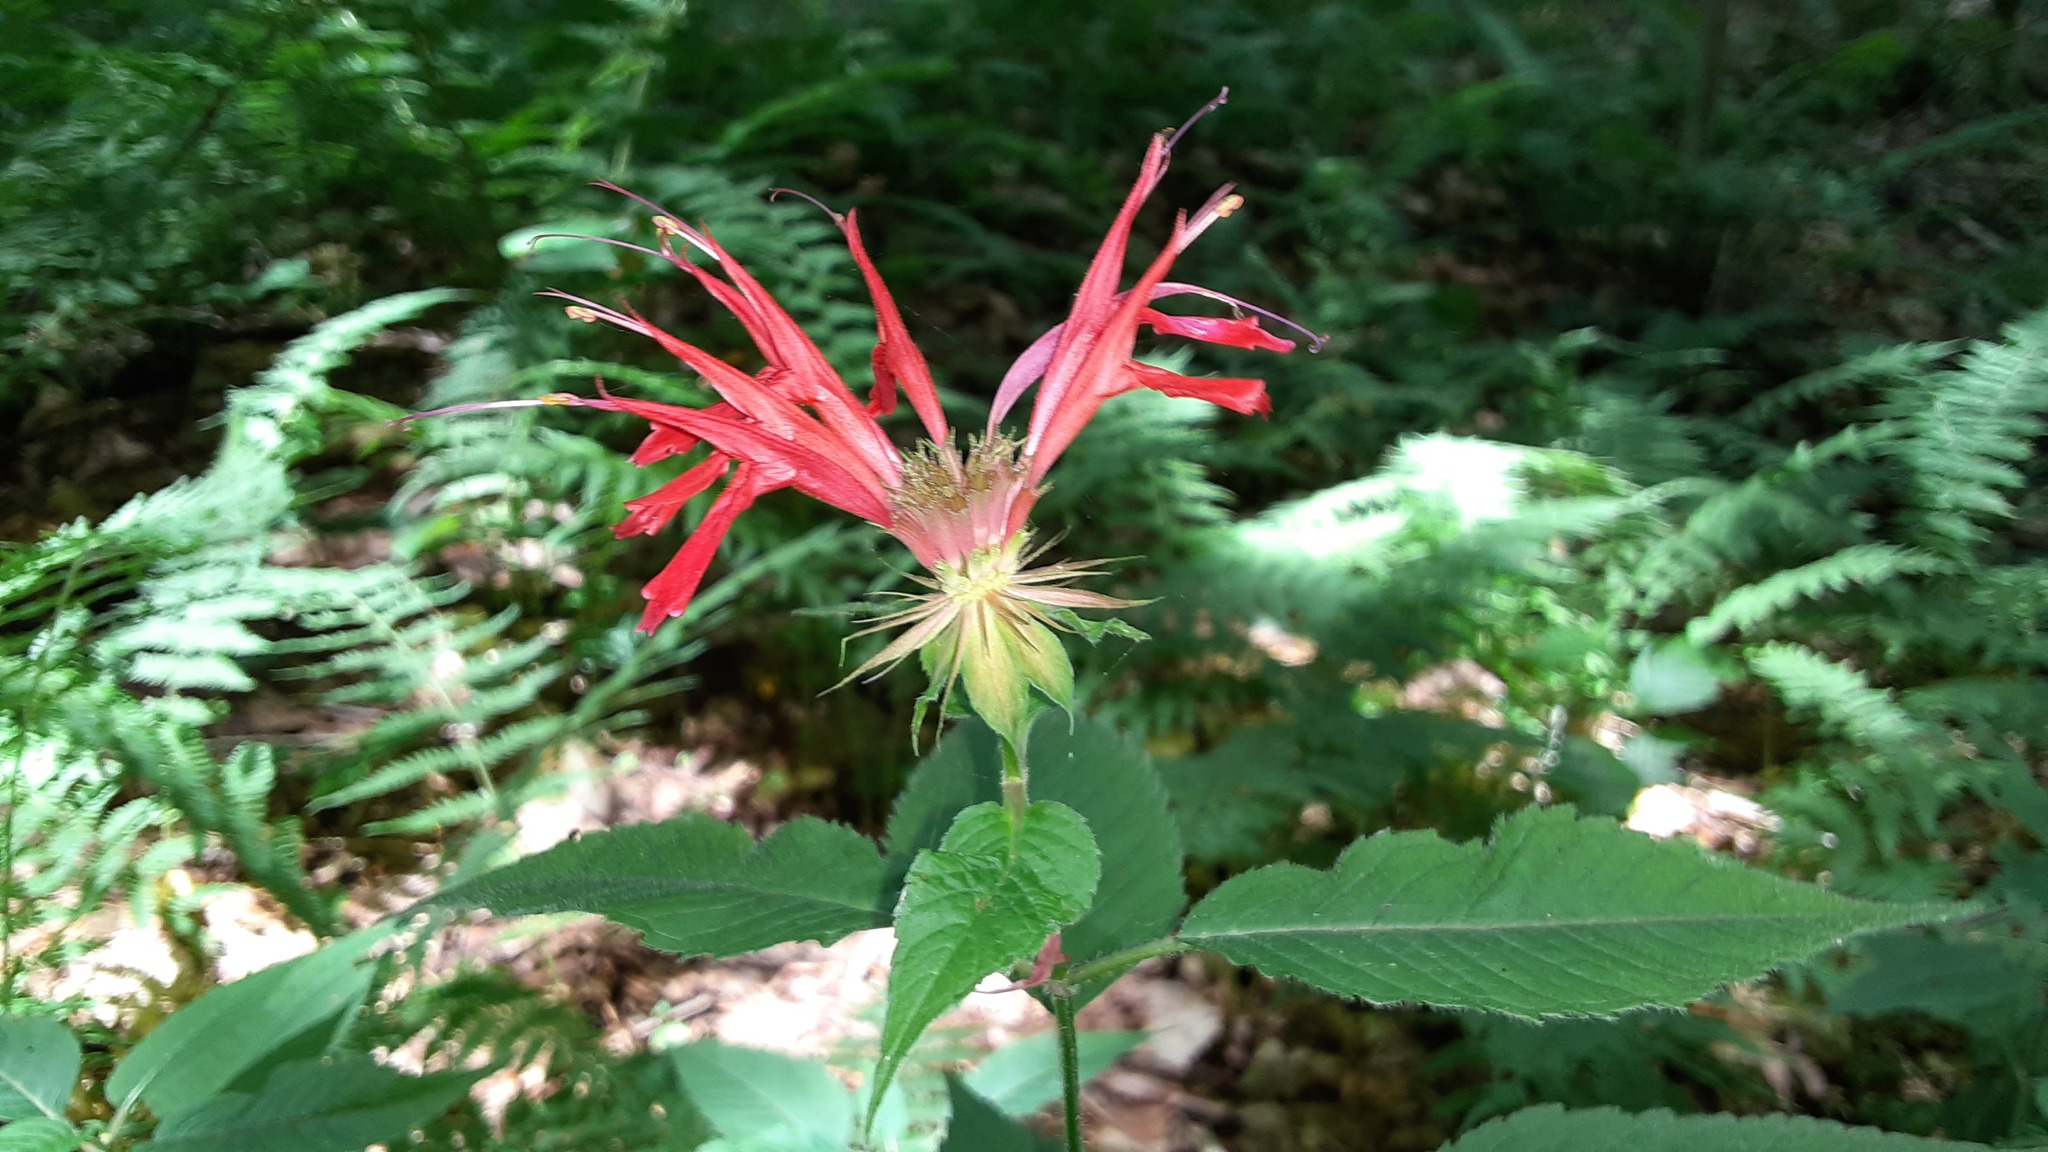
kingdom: Plantae
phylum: Tracheophyta
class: Magnoliopsida
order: Lamiales
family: Lamiaceae
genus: Monarda
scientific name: Monarda didyma
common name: Beebalm
